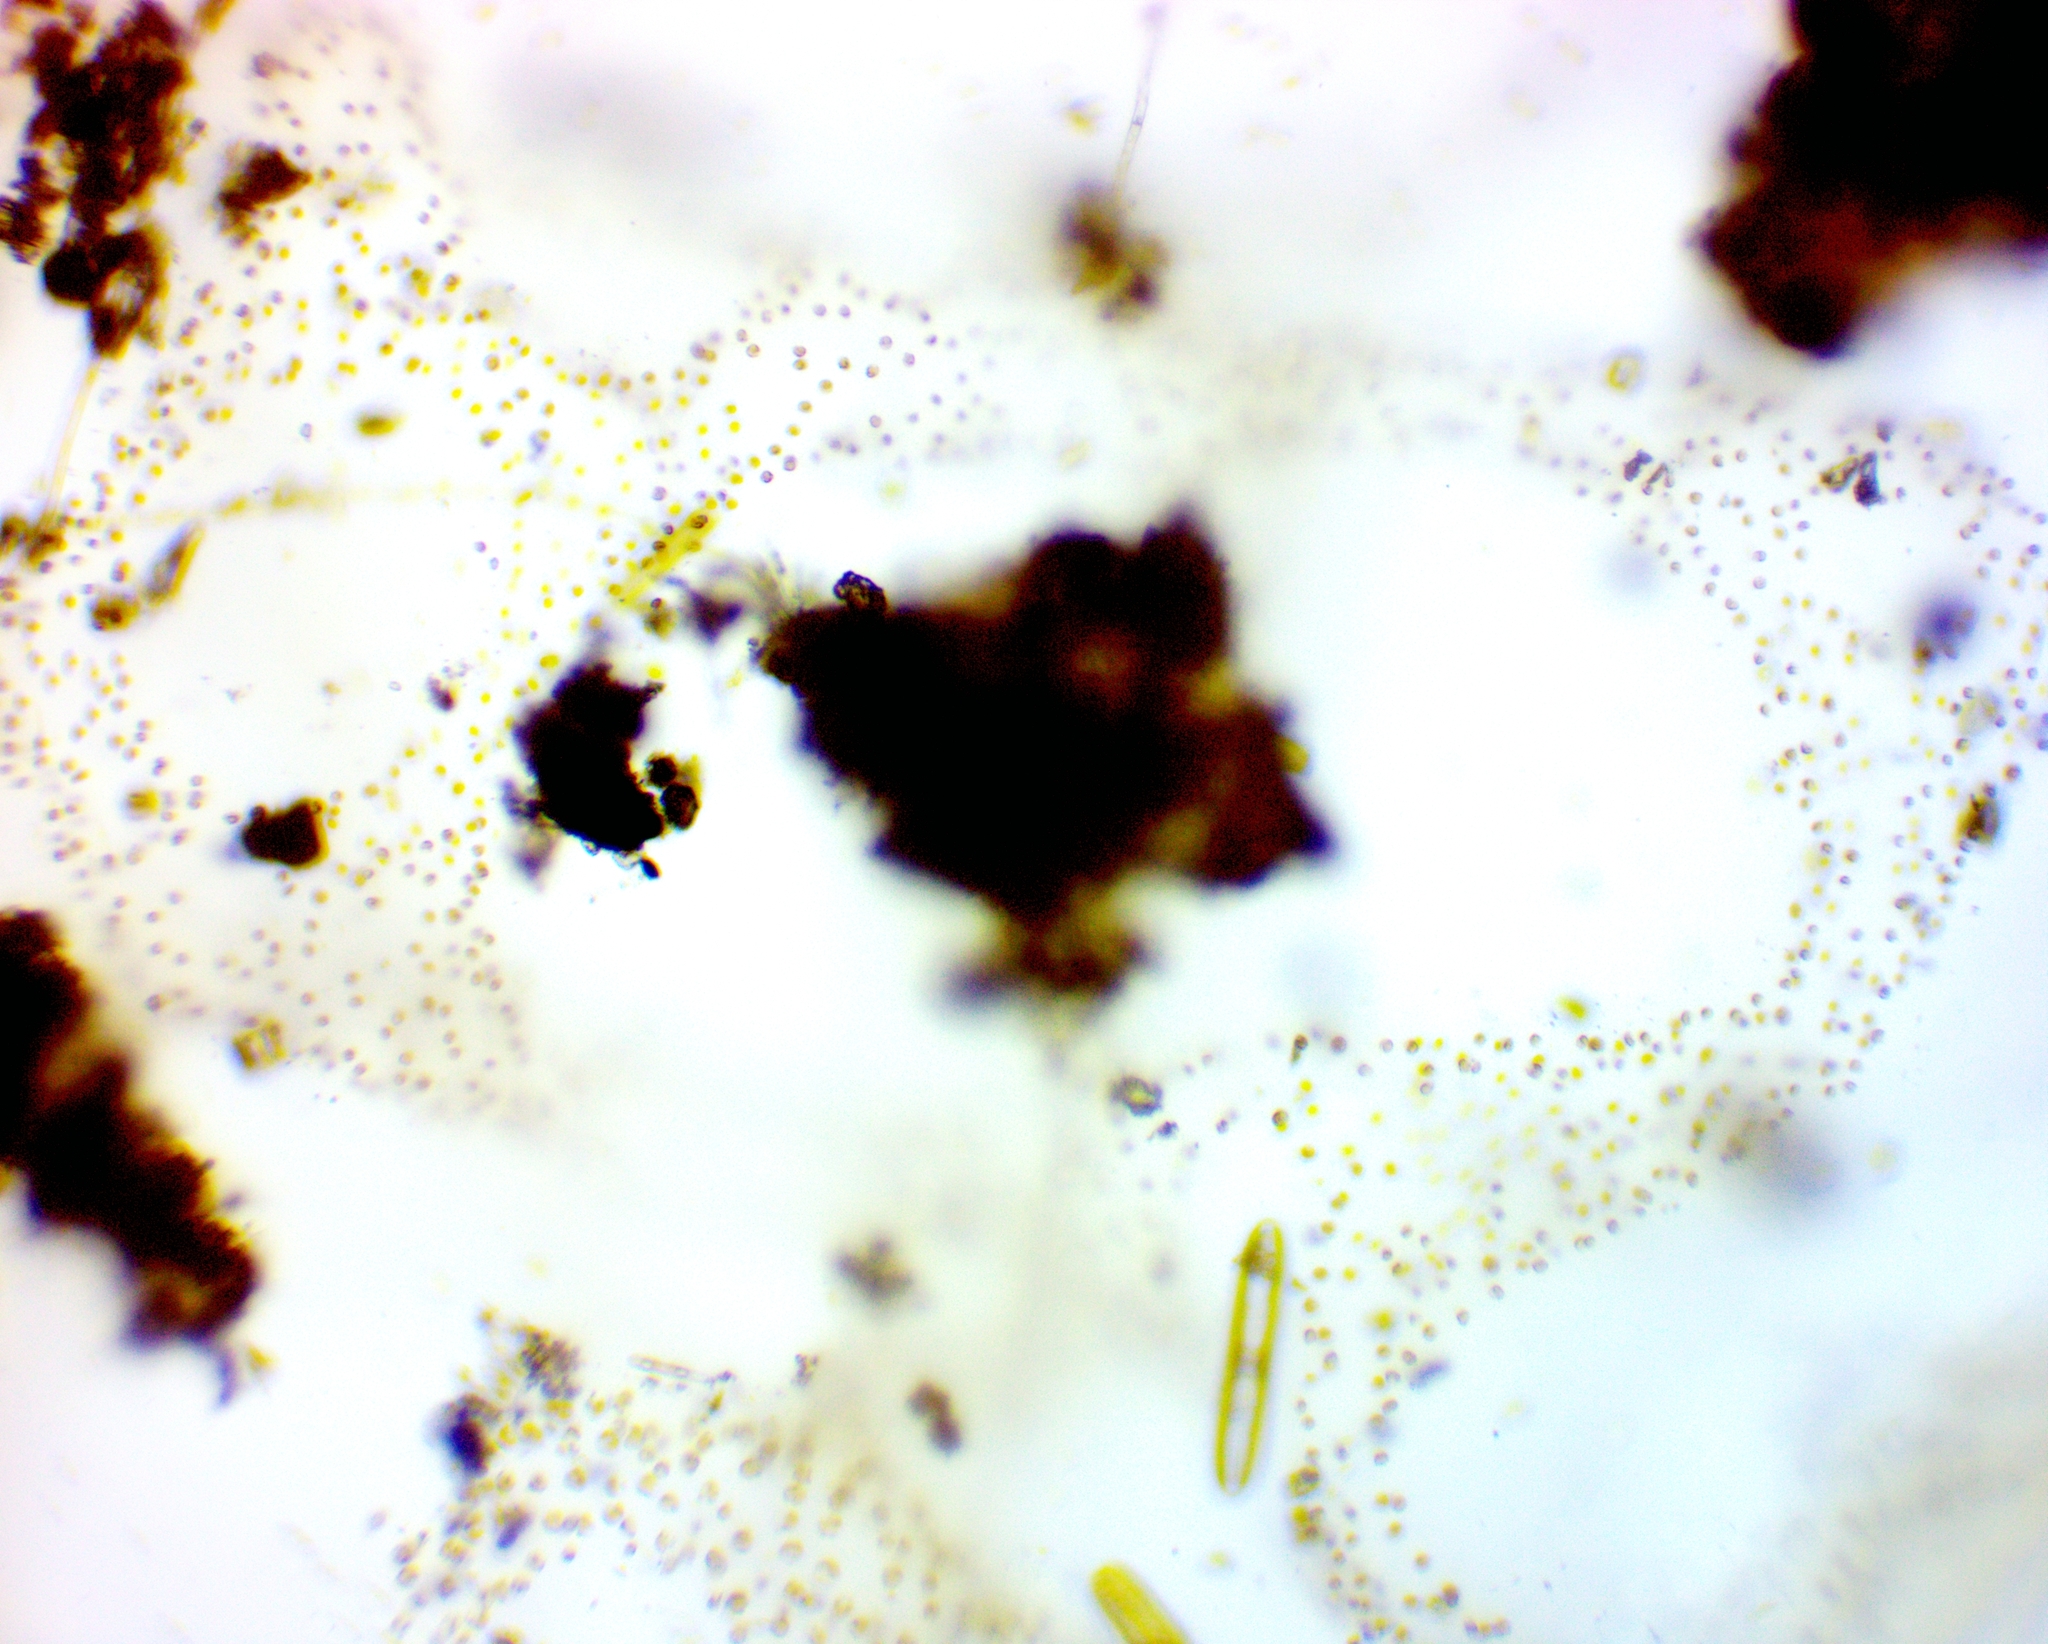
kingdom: Chromista
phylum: Ochrophyta
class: Chrysophyceae
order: Chromulinales
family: Chrysocapsaceae
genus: Heimiochrysis
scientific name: Heimiochrysis
